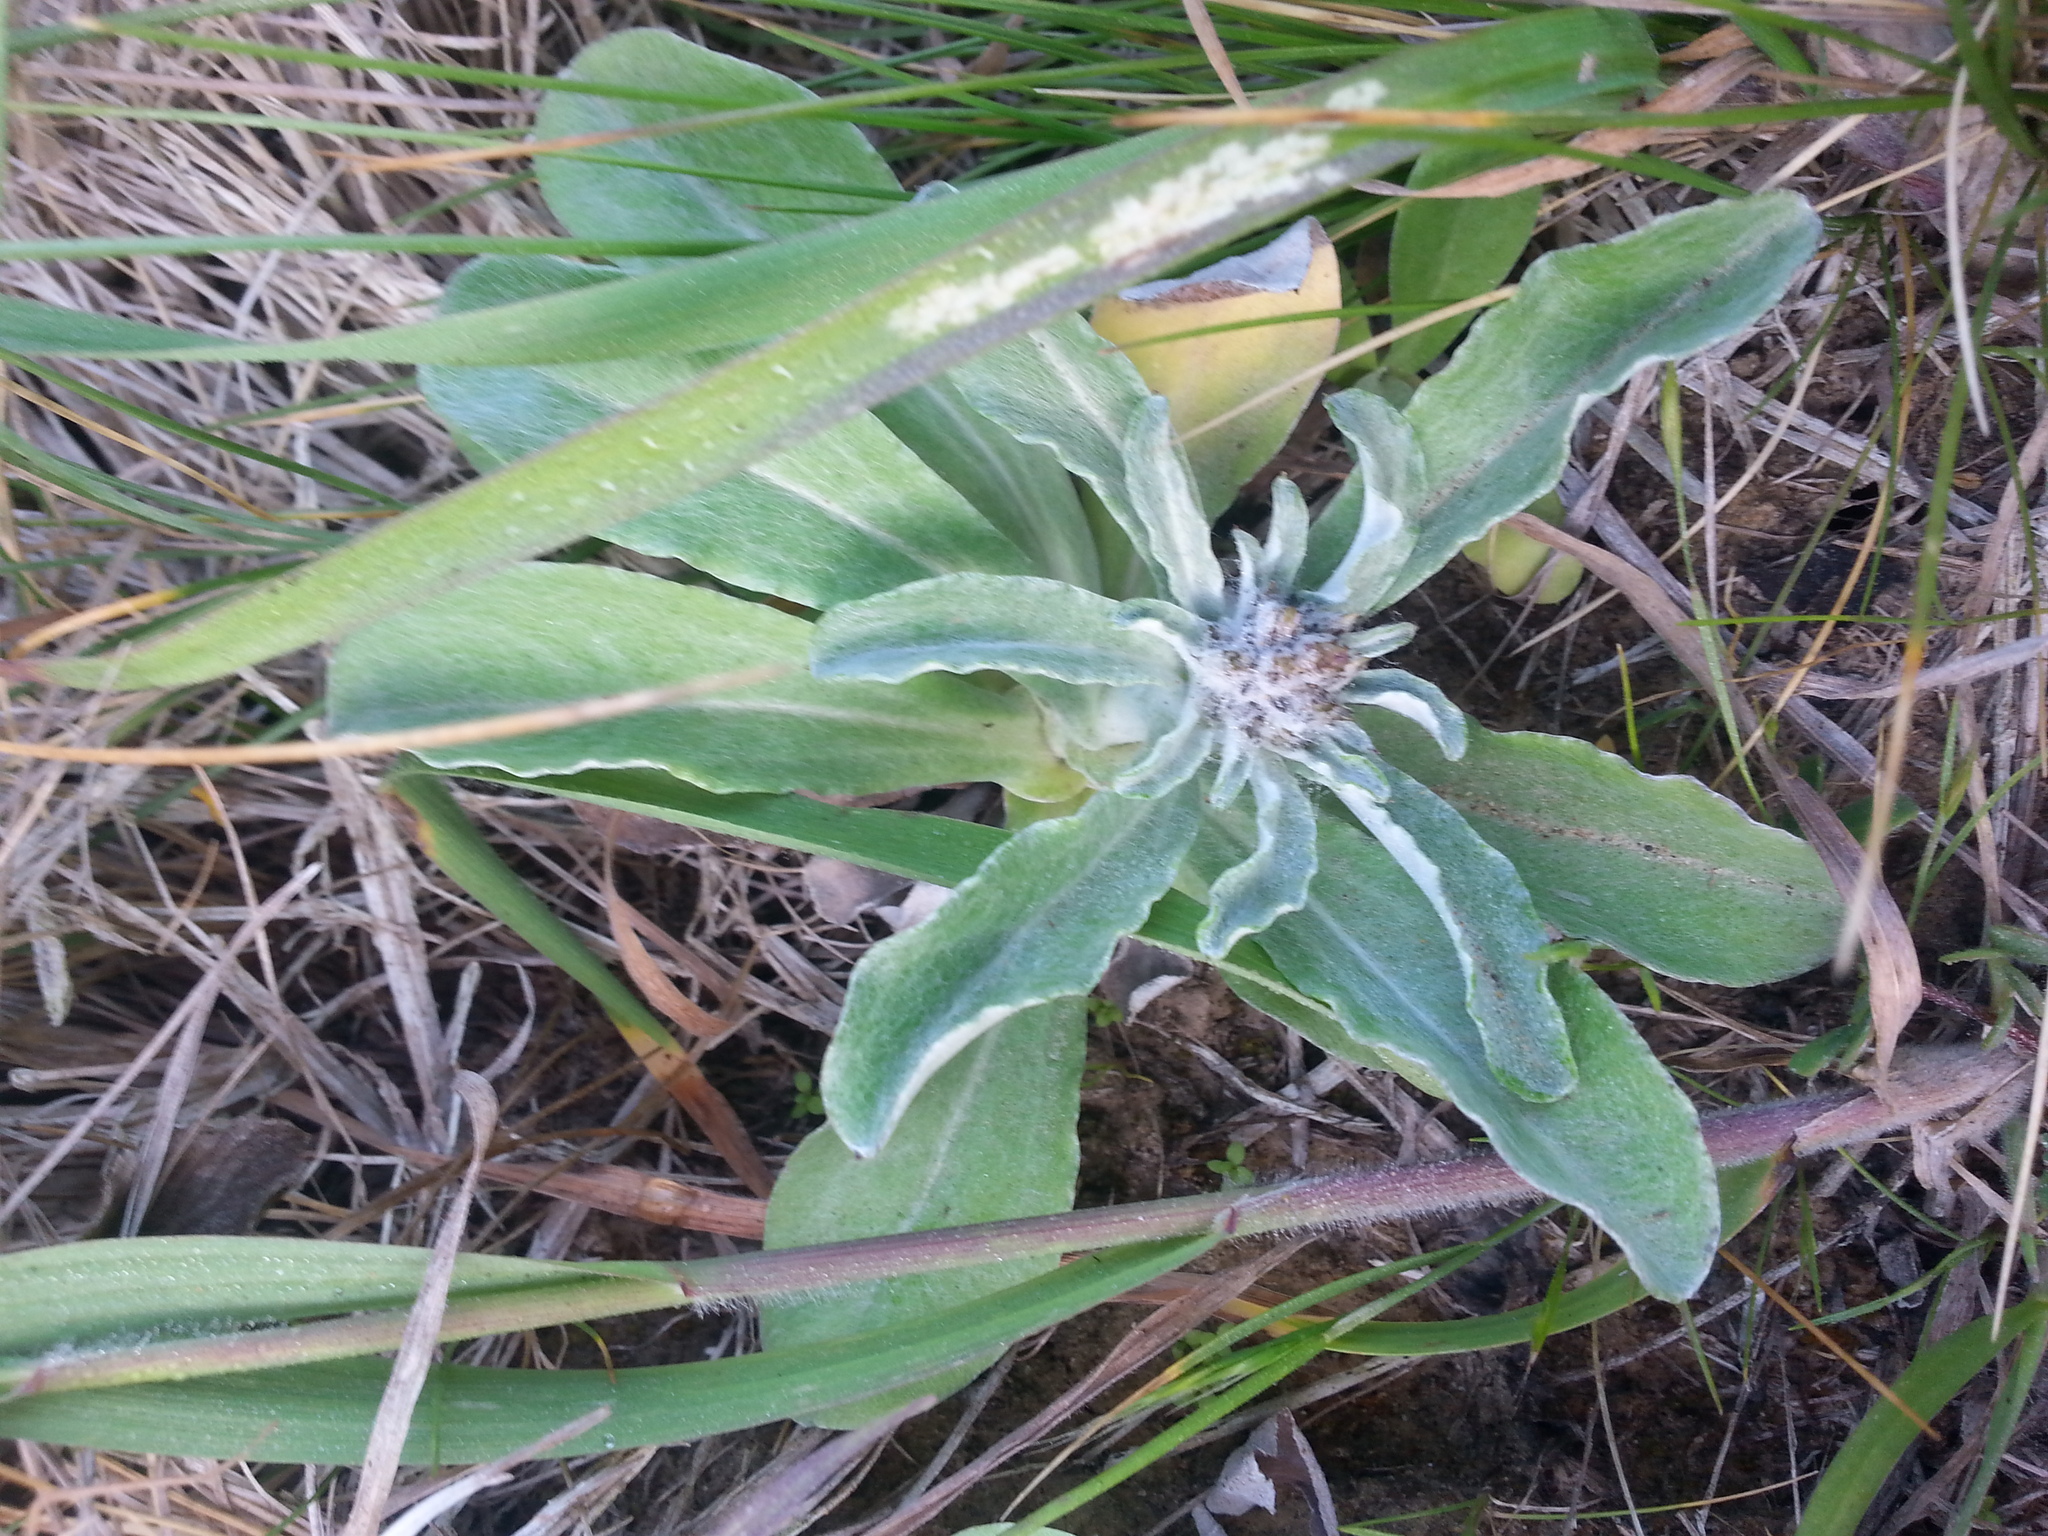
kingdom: Plantae
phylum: Tracheophyta
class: Magnoliopsida
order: Asterales
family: Asteraceae
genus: Gamochaeta
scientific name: Gamochaeta ustulata
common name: Pacific cudweed
